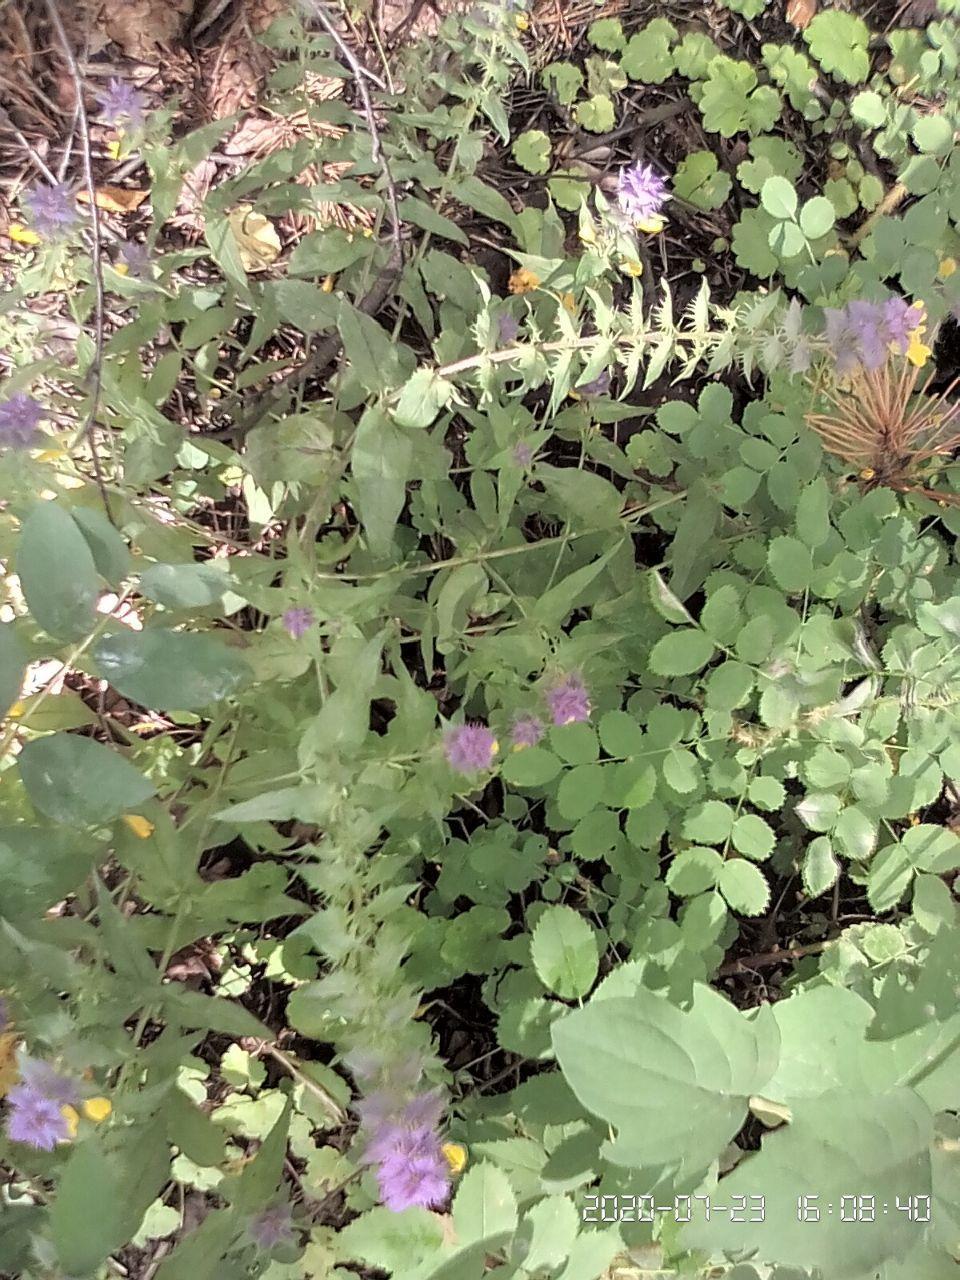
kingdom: Plantae
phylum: Tracheophyta
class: Magnoliopsida
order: Lamiales
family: Orobanchaceae
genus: Melampyrum
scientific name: Melampyrum nemorosum
